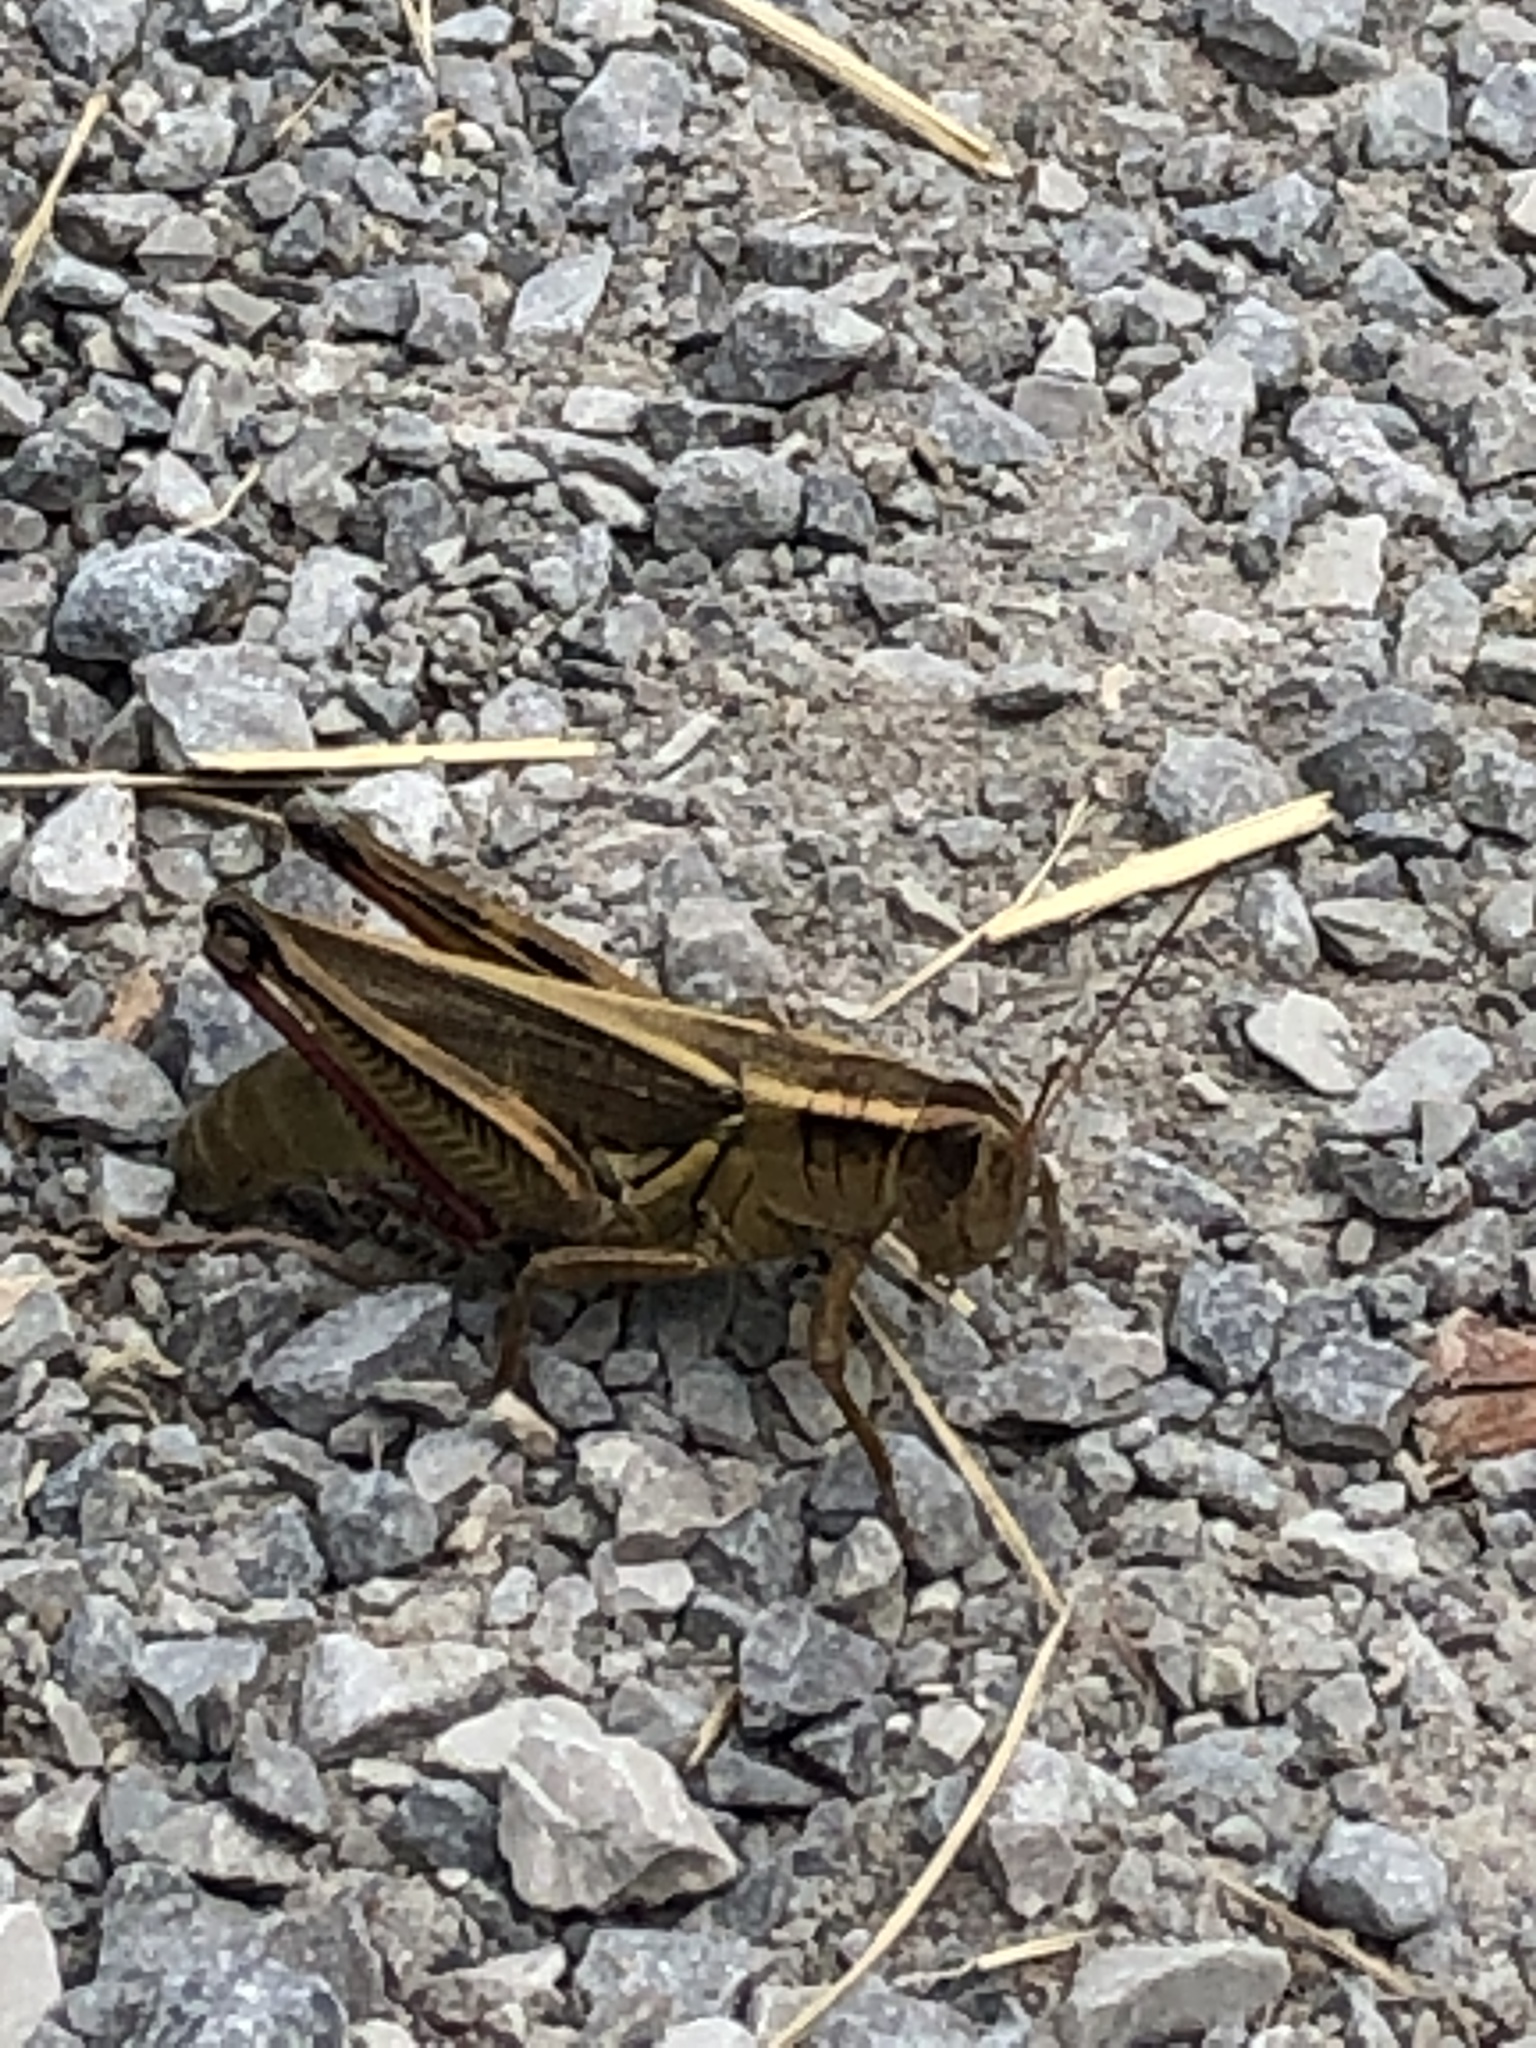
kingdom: Animalia
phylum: Arthropoda
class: Insecta
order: Orthoptera
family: Acrididae
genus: Melanoplus
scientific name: Melanoplus bivittatus
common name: Two-striped grasshopper
